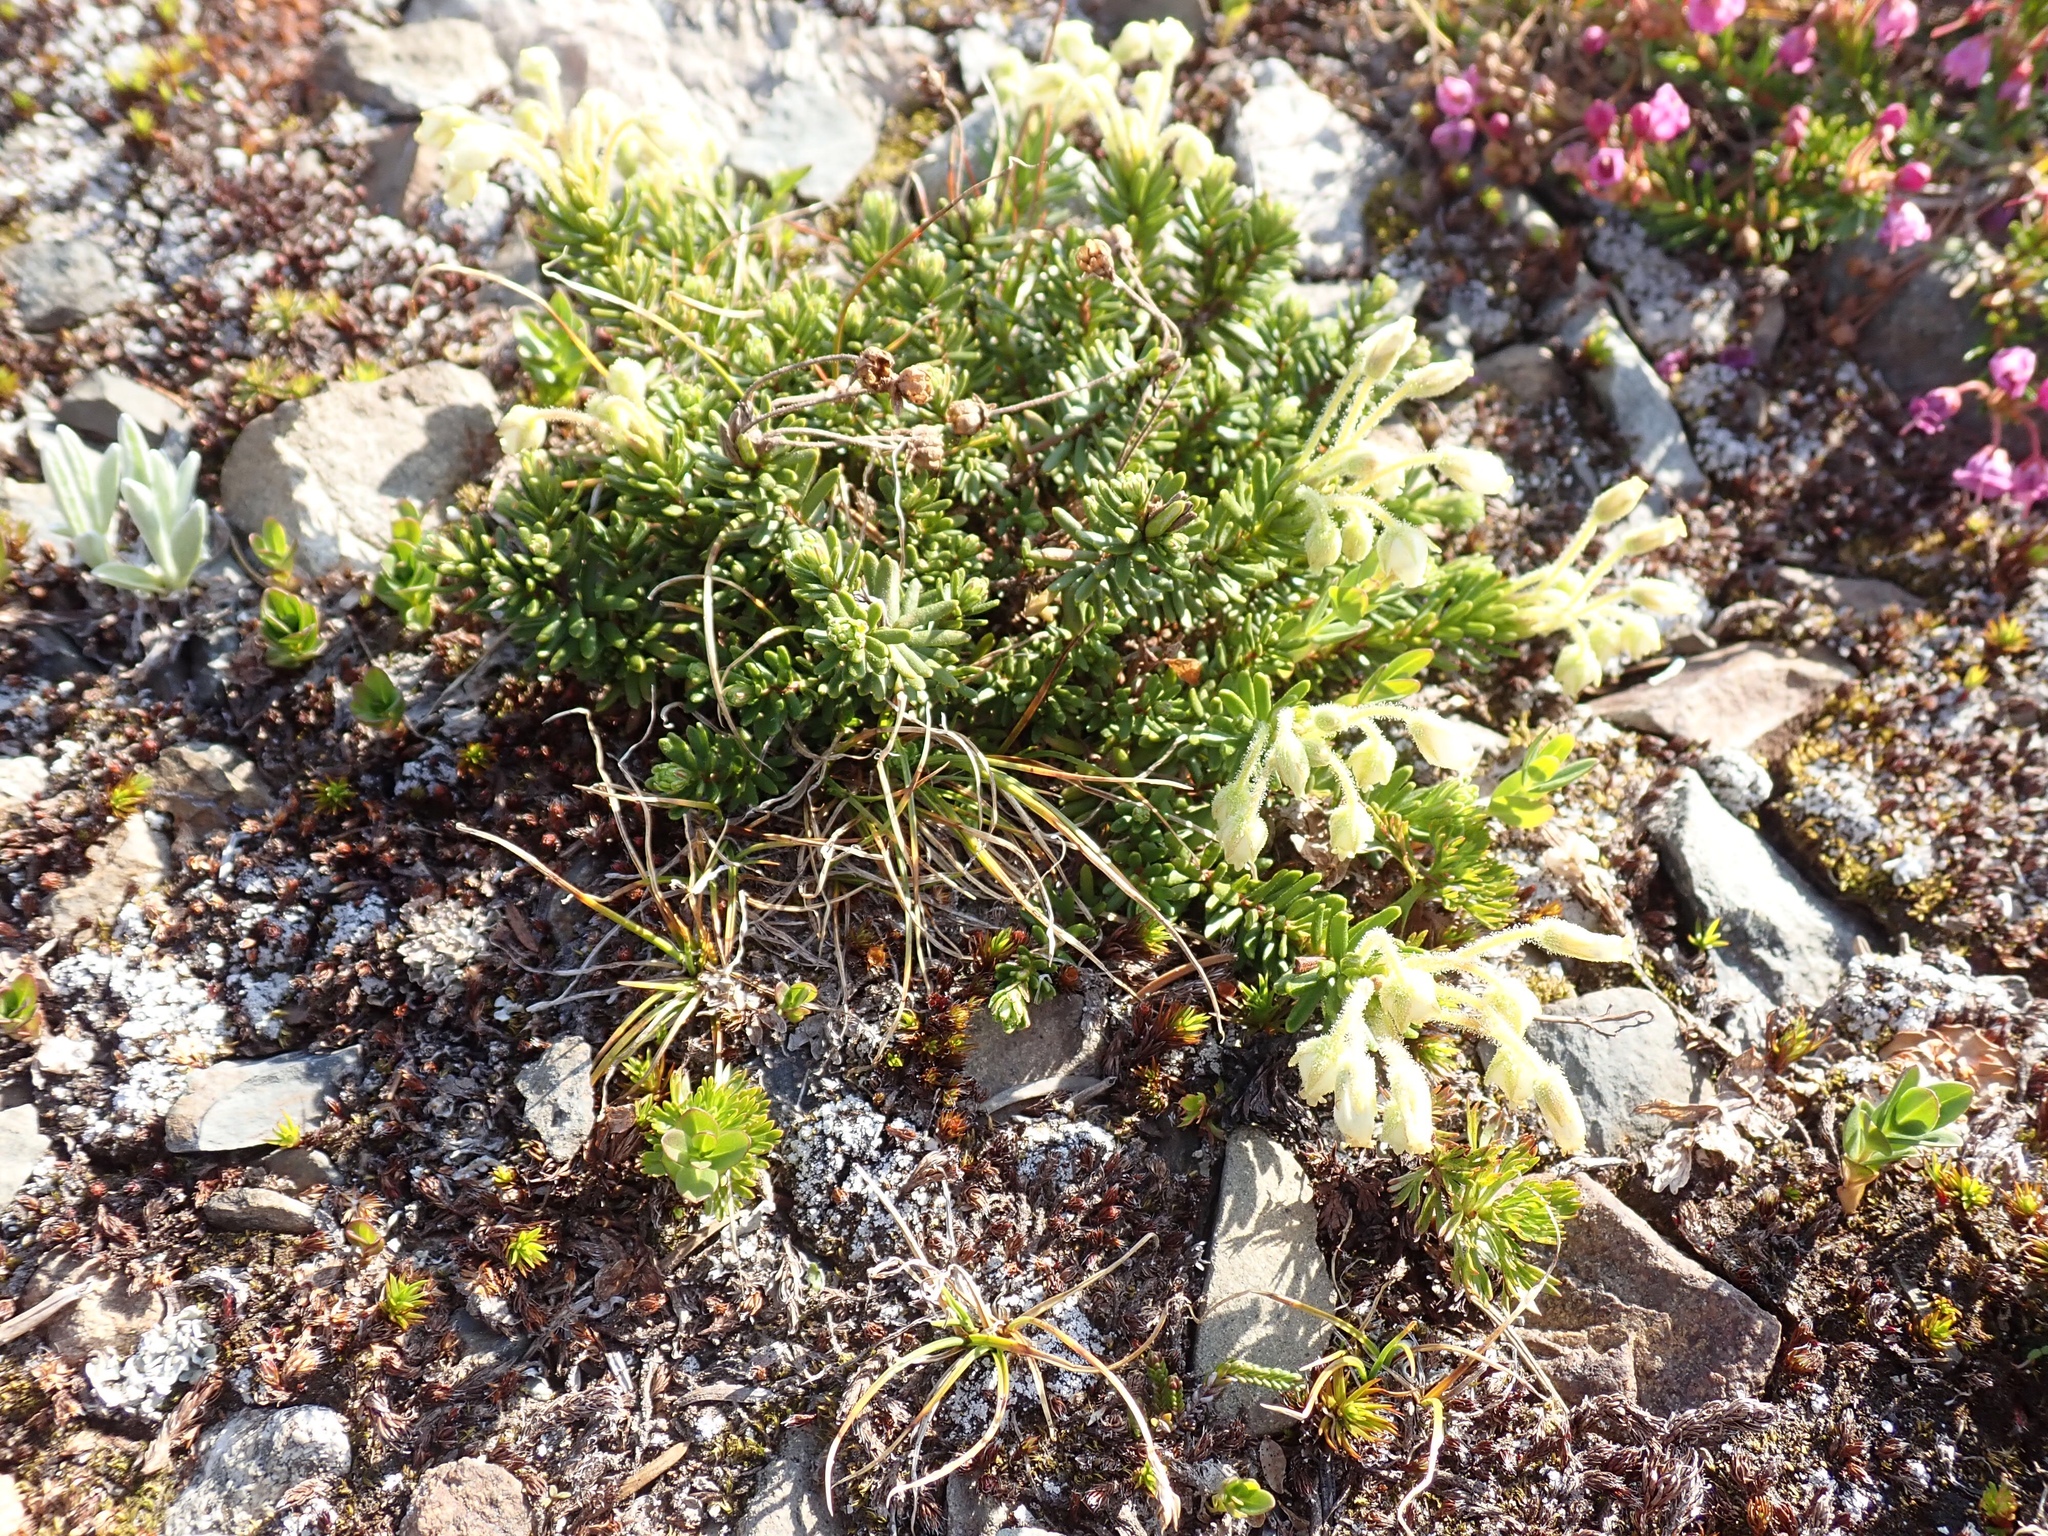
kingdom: Plantae
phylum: Tracheophyta
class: Magnoliopsida
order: Ericales
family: Ericaceae
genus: Phyllodoce
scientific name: Phyllodoce glanduliflora
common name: Cream mountain heather
